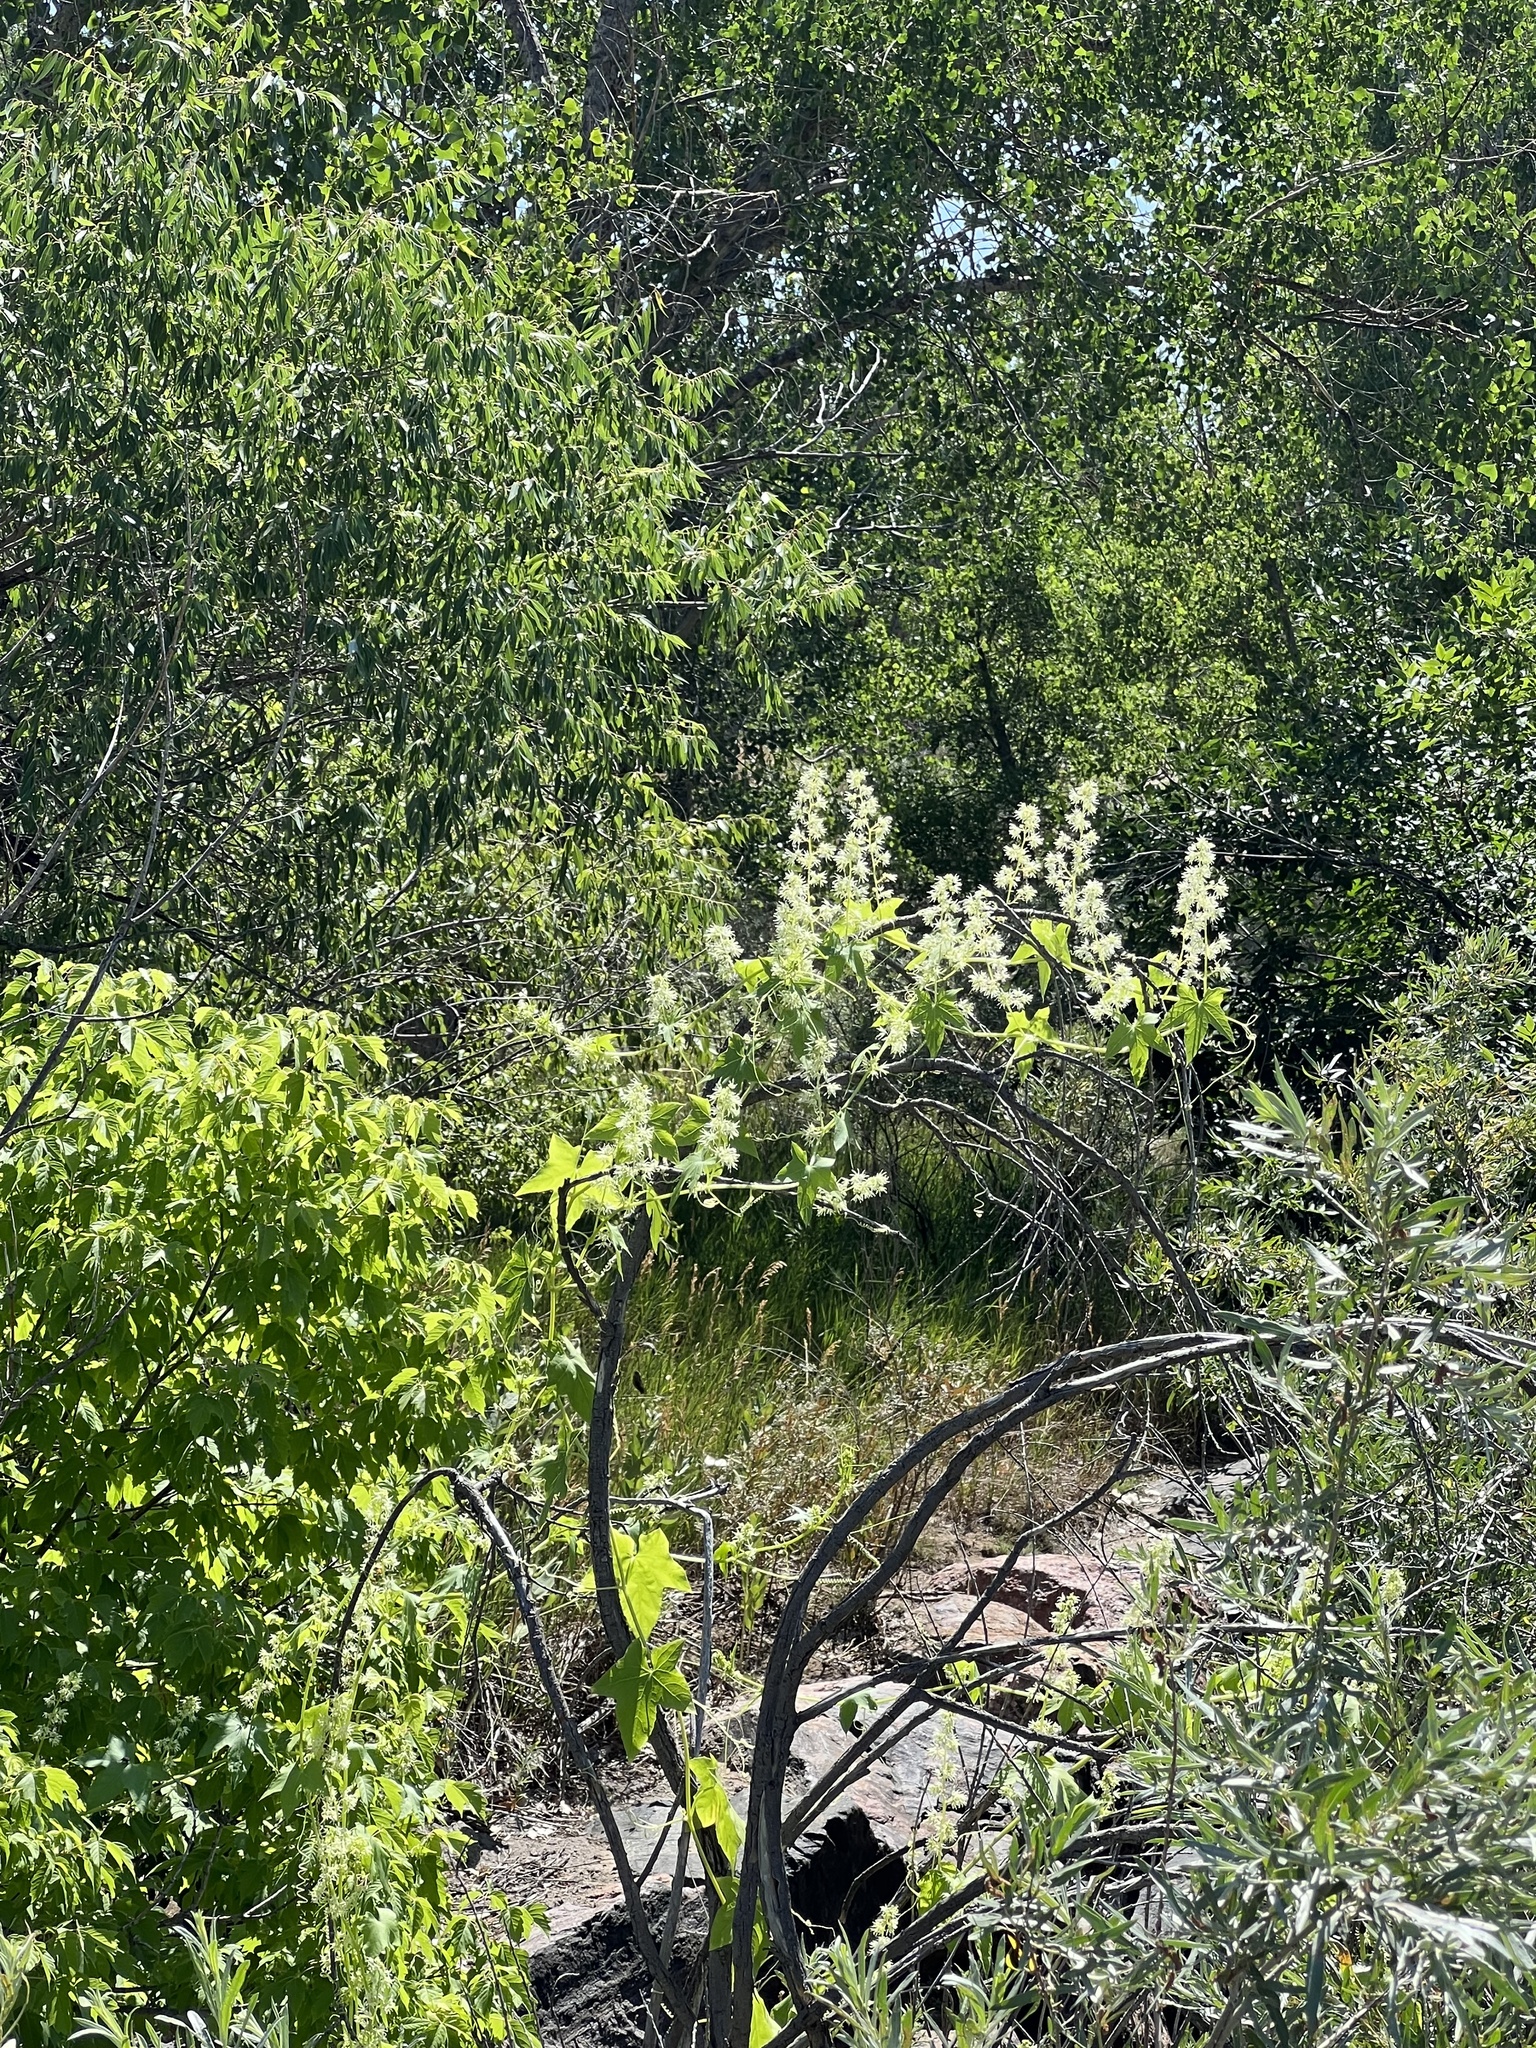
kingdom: Plantae
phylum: Tracheophyta
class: Magnoliopsida
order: Cucurbitales
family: Cucurbitaceae
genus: Echinocystis
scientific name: Echinocystis lobata
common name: Wild cucumber
